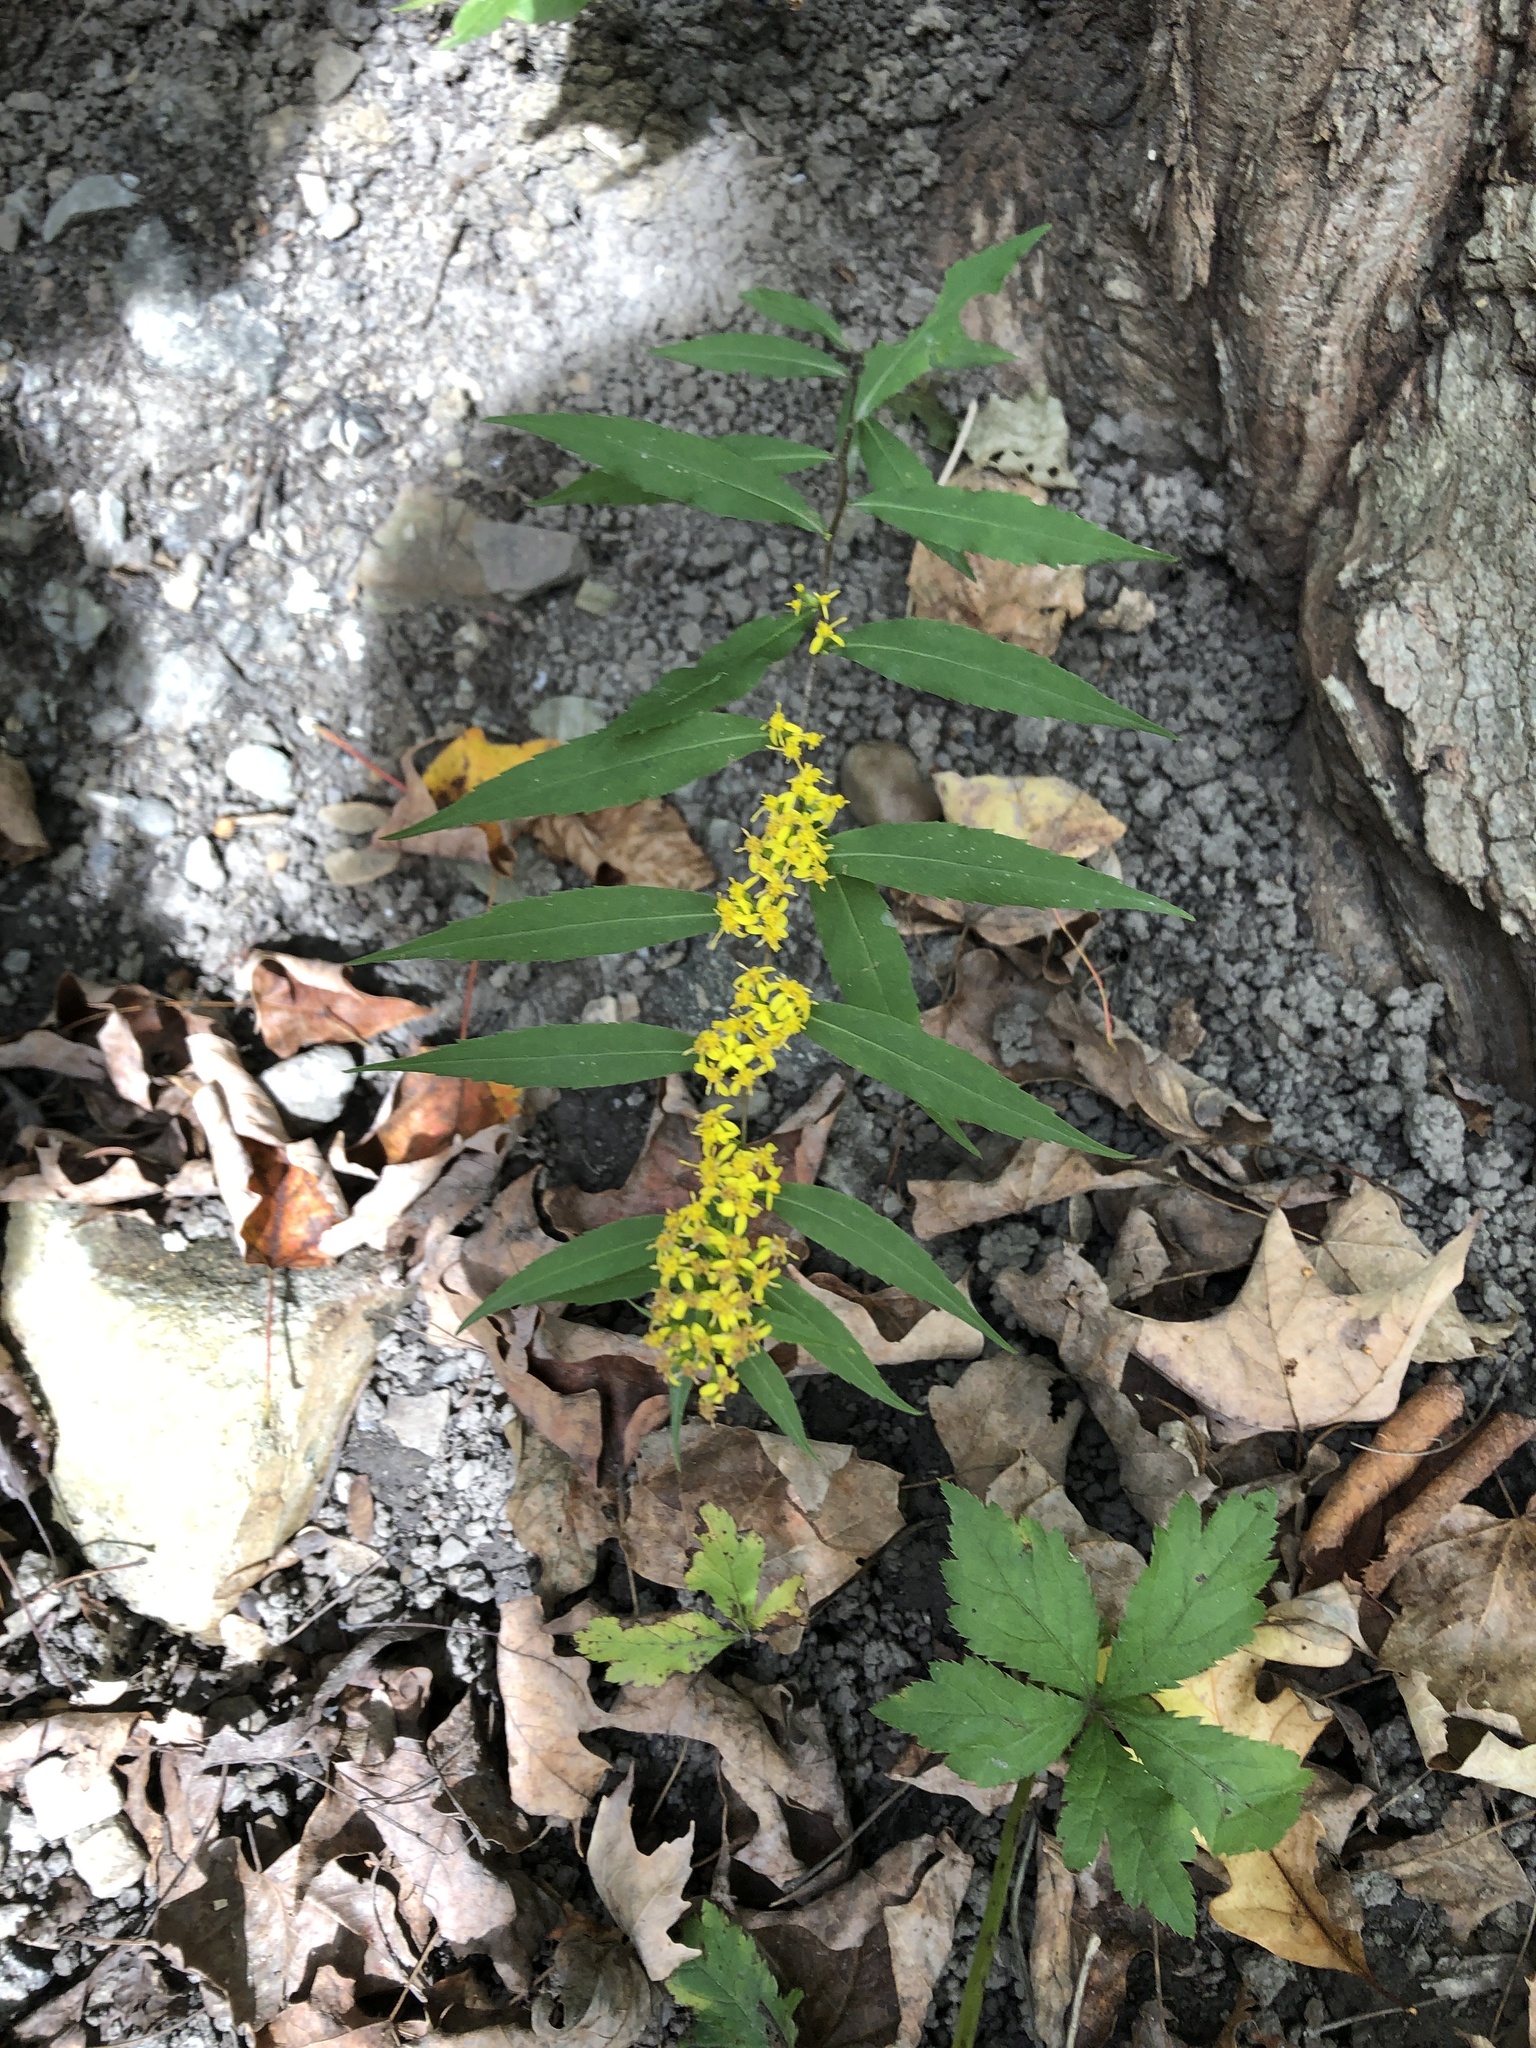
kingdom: Plantae
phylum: Tracheophyta
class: Magnoliopsida
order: Asterales
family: Asteraceae
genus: Solidago
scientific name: Solidago caesia
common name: Woodland goldenrod
